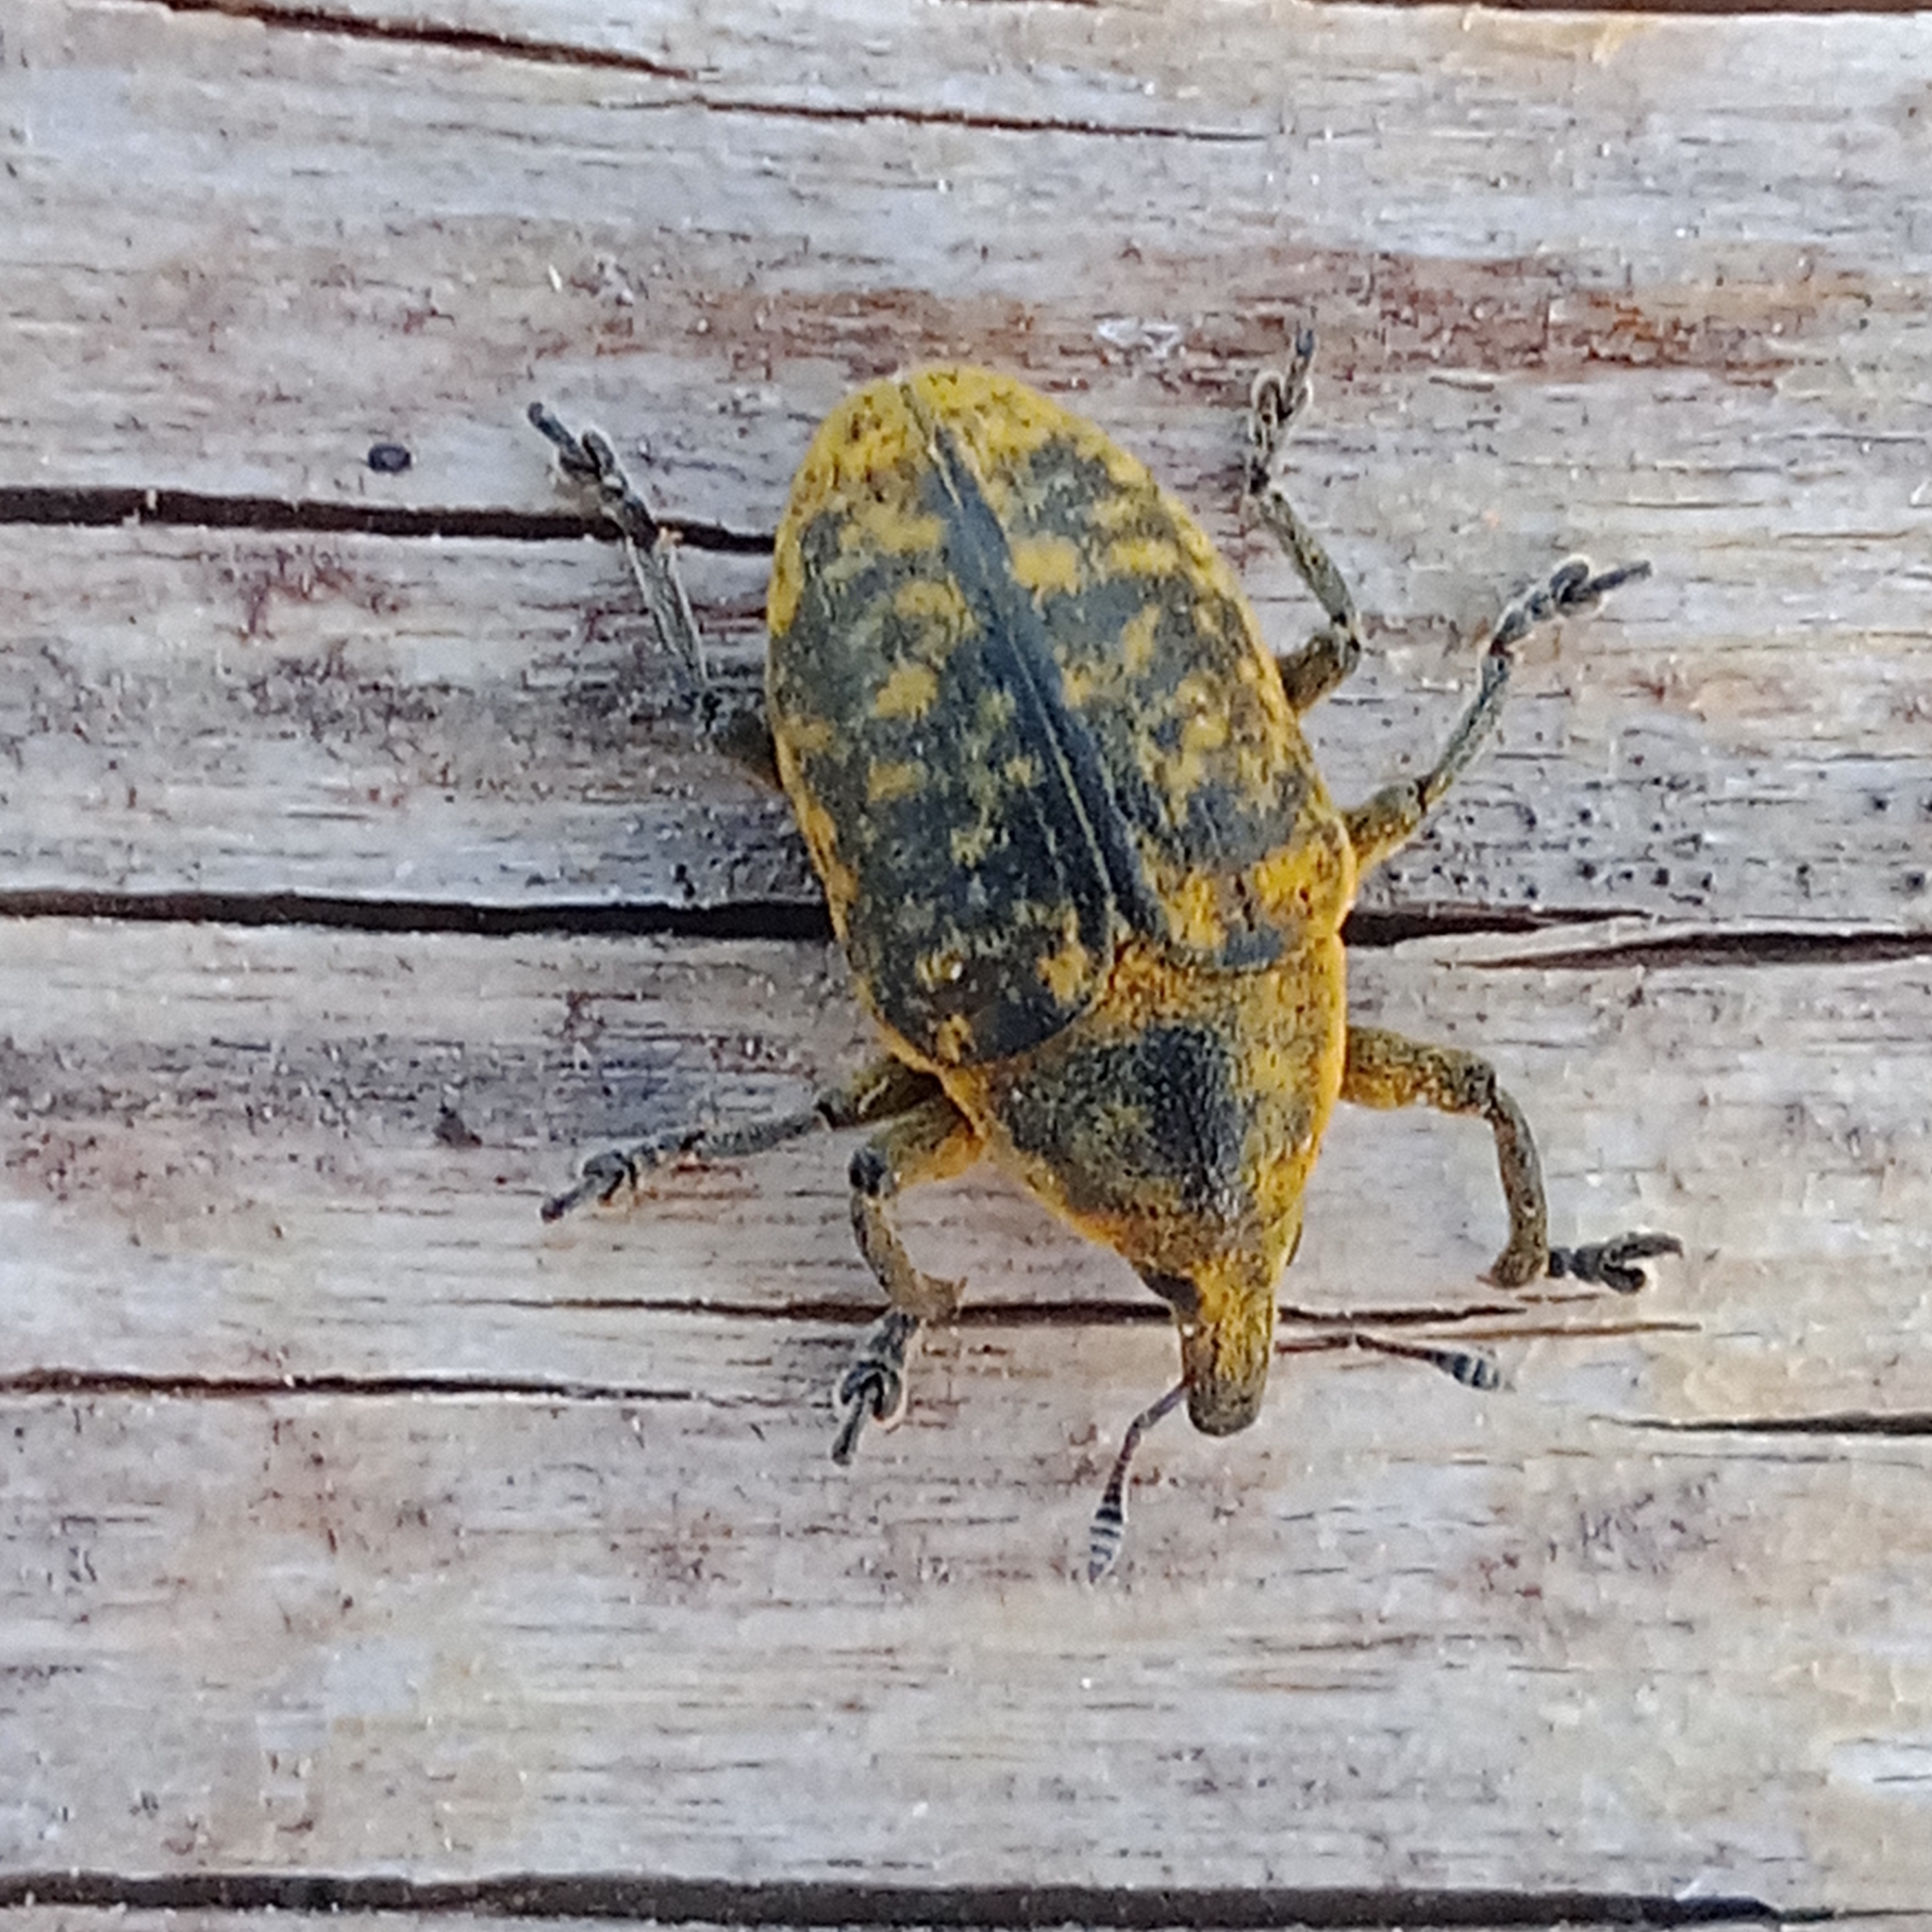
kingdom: Animalia
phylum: Arthropoda
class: Insecta
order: Coleoptera
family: Curculionidae
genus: Larinus
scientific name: Larinus turbinatus
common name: Weevil
